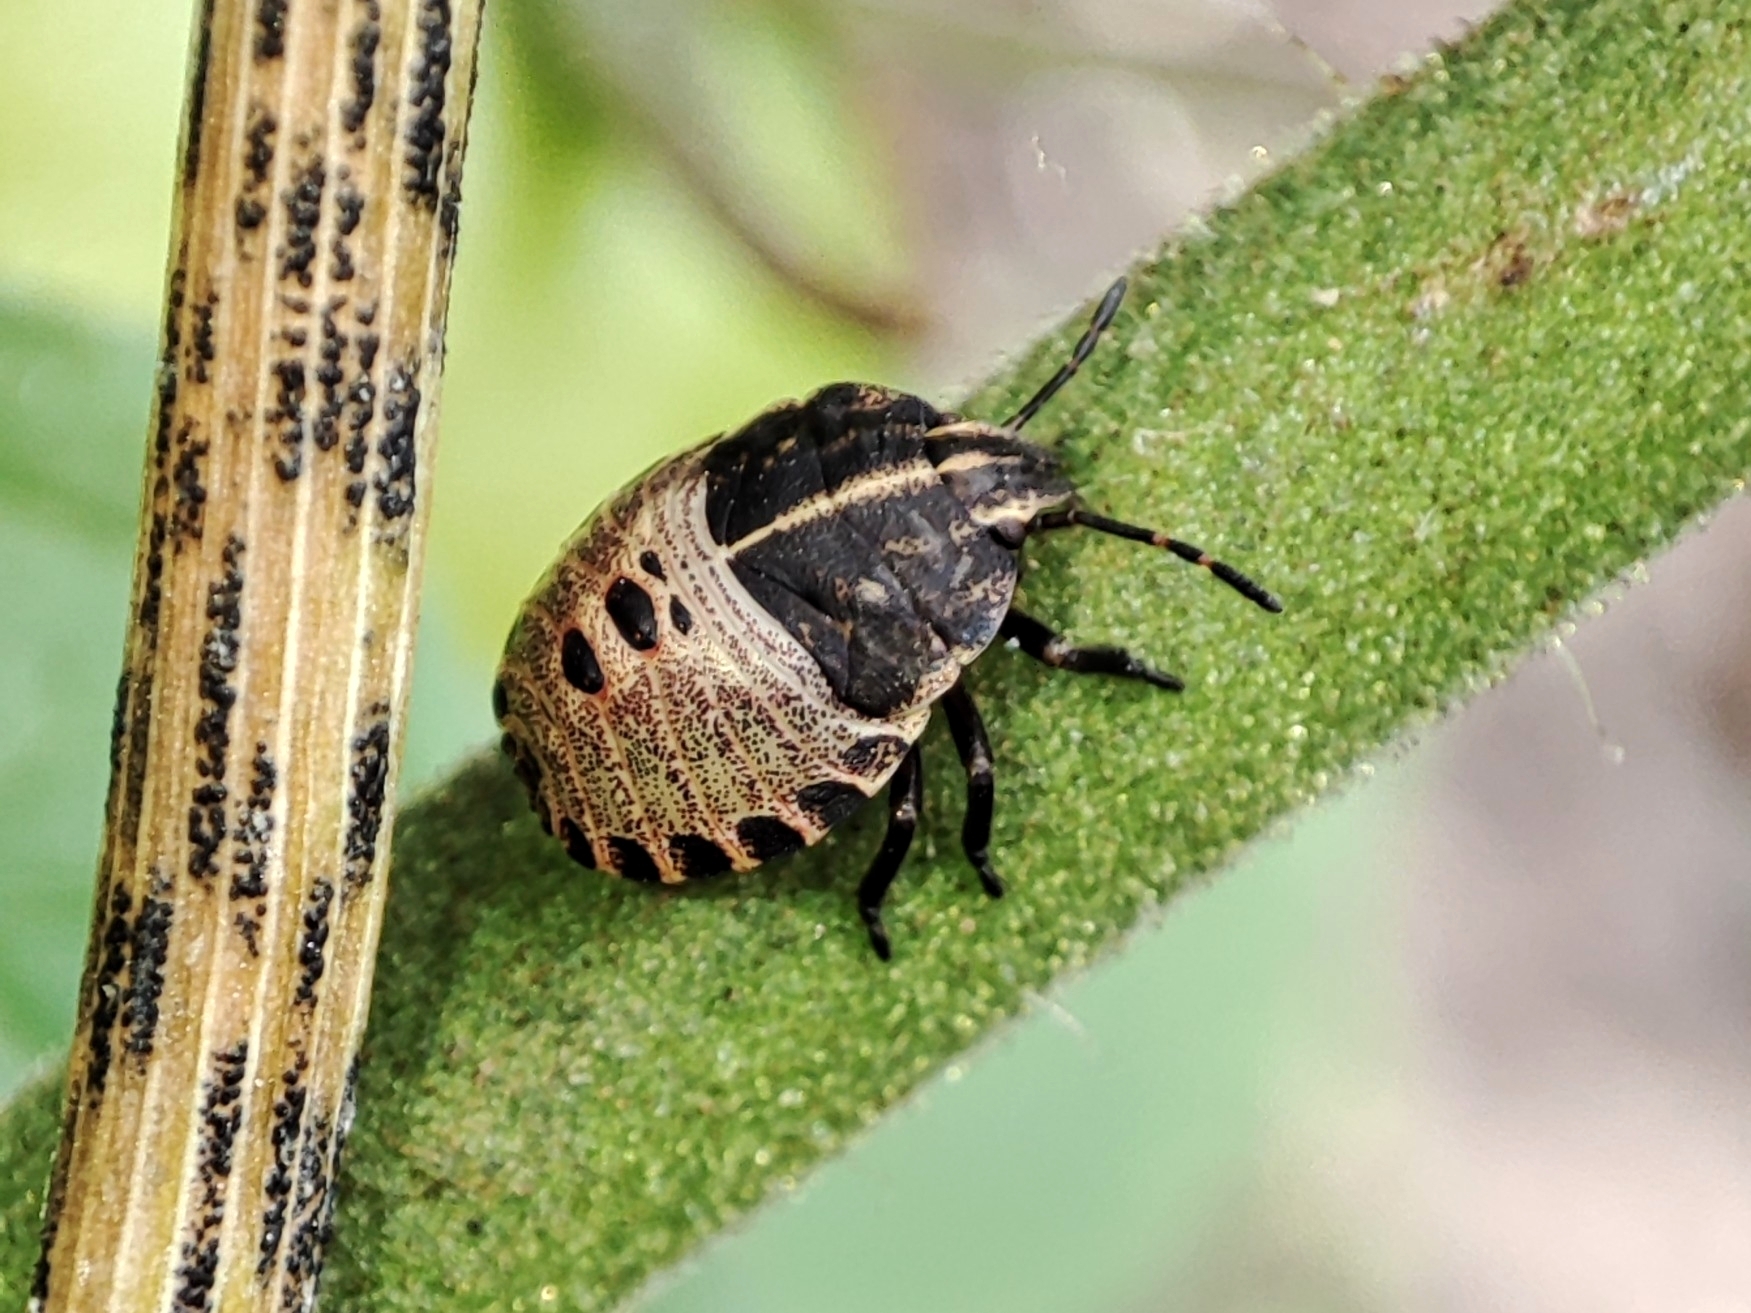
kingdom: Animalia
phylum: Arthropoda
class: Insecta
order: Hemiptera
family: Pentatomidae
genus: Graphosoma
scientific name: Graphosoma italicum
